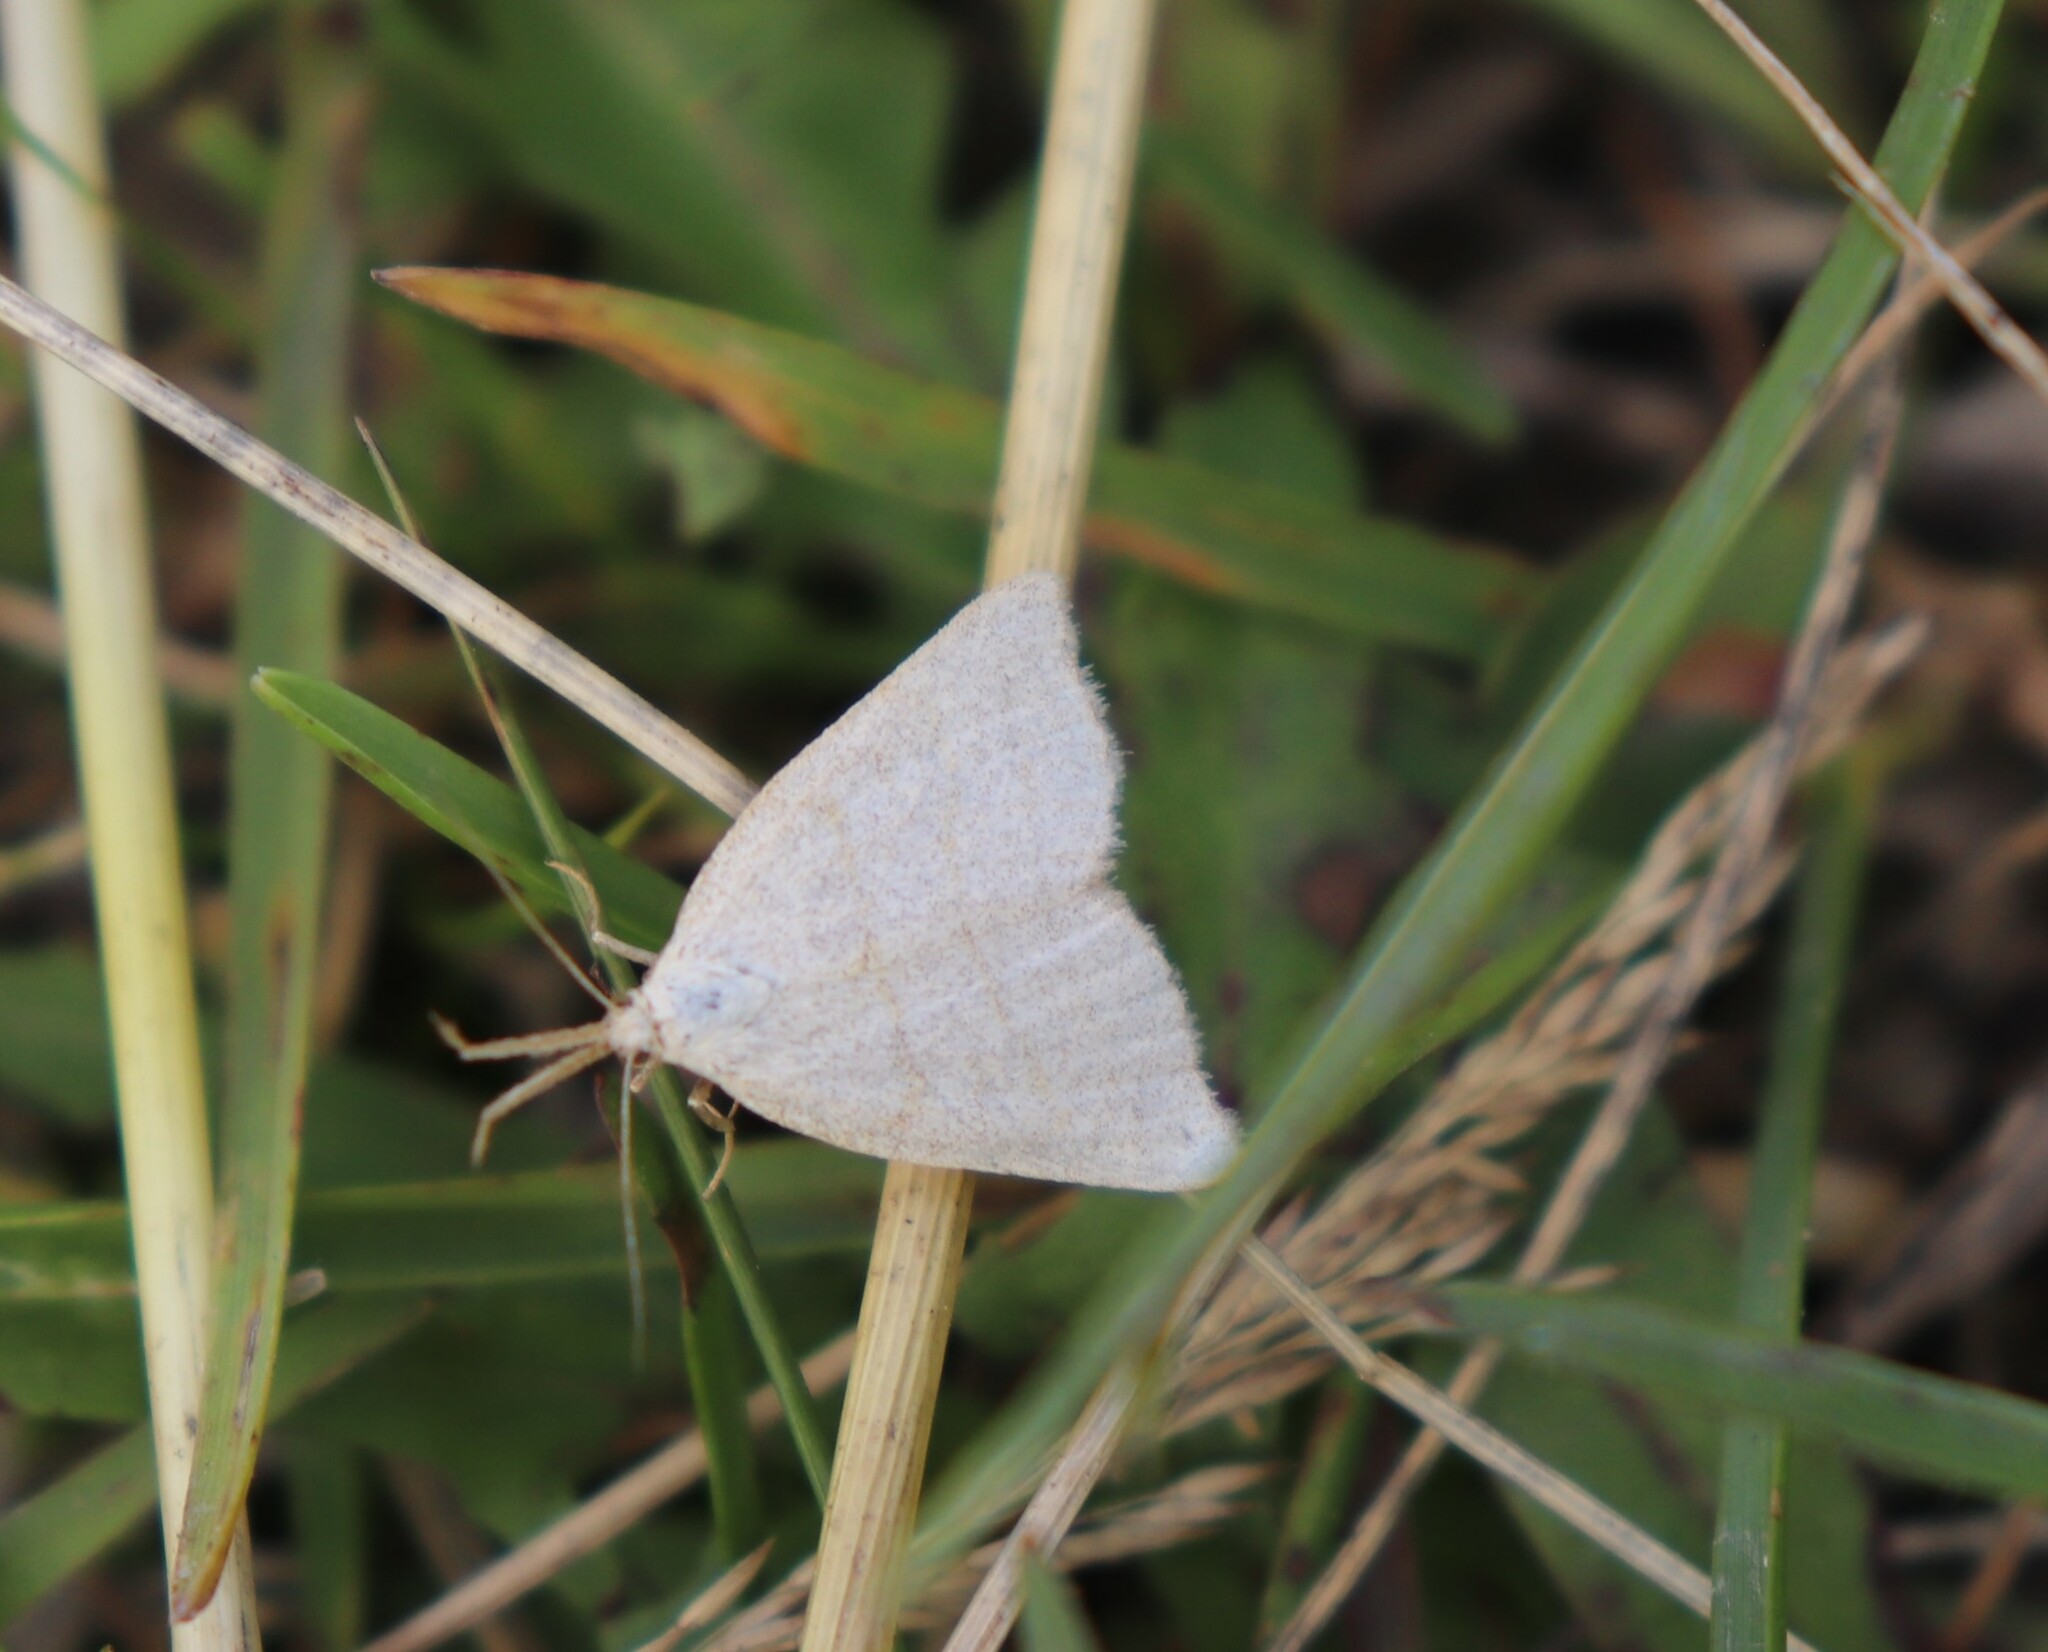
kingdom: Animalia
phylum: Arthropoda
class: Insecta
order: Lepidoptera
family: Erebidae
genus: Polypogon
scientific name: Polypogon tentacularia
